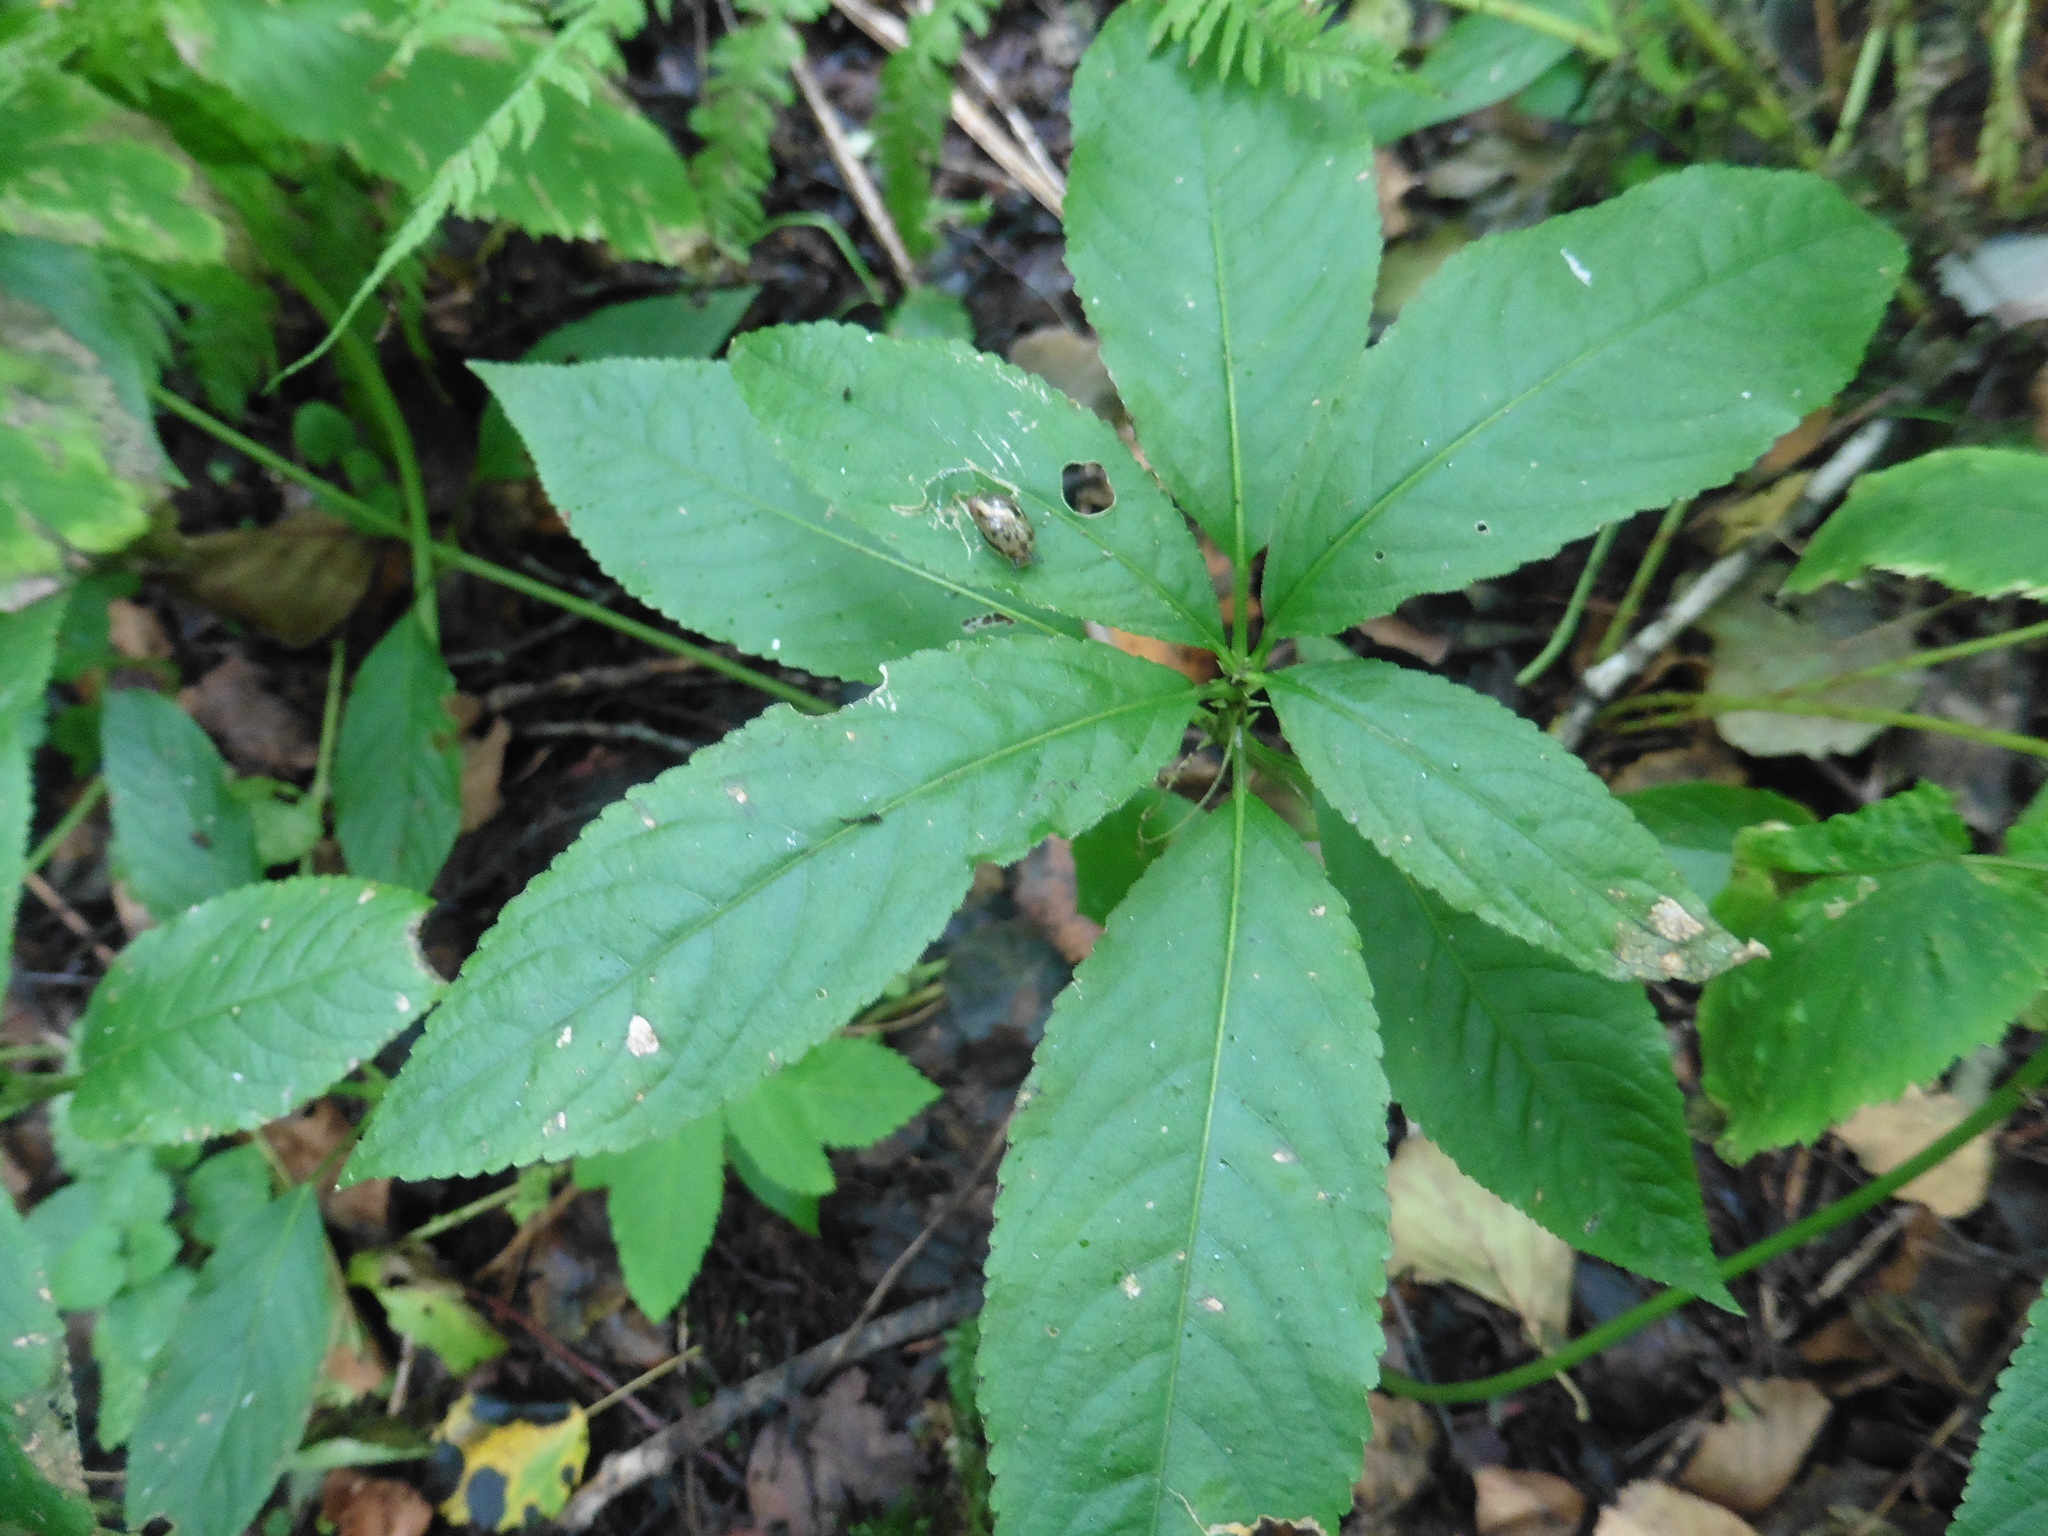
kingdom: Plantae
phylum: Tracheophyta
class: Magnoliopsida
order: Malpighiales
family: Euphorbiaceae
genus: Mercurialis
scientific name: Mercurialis perennis
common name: Dog mercury
